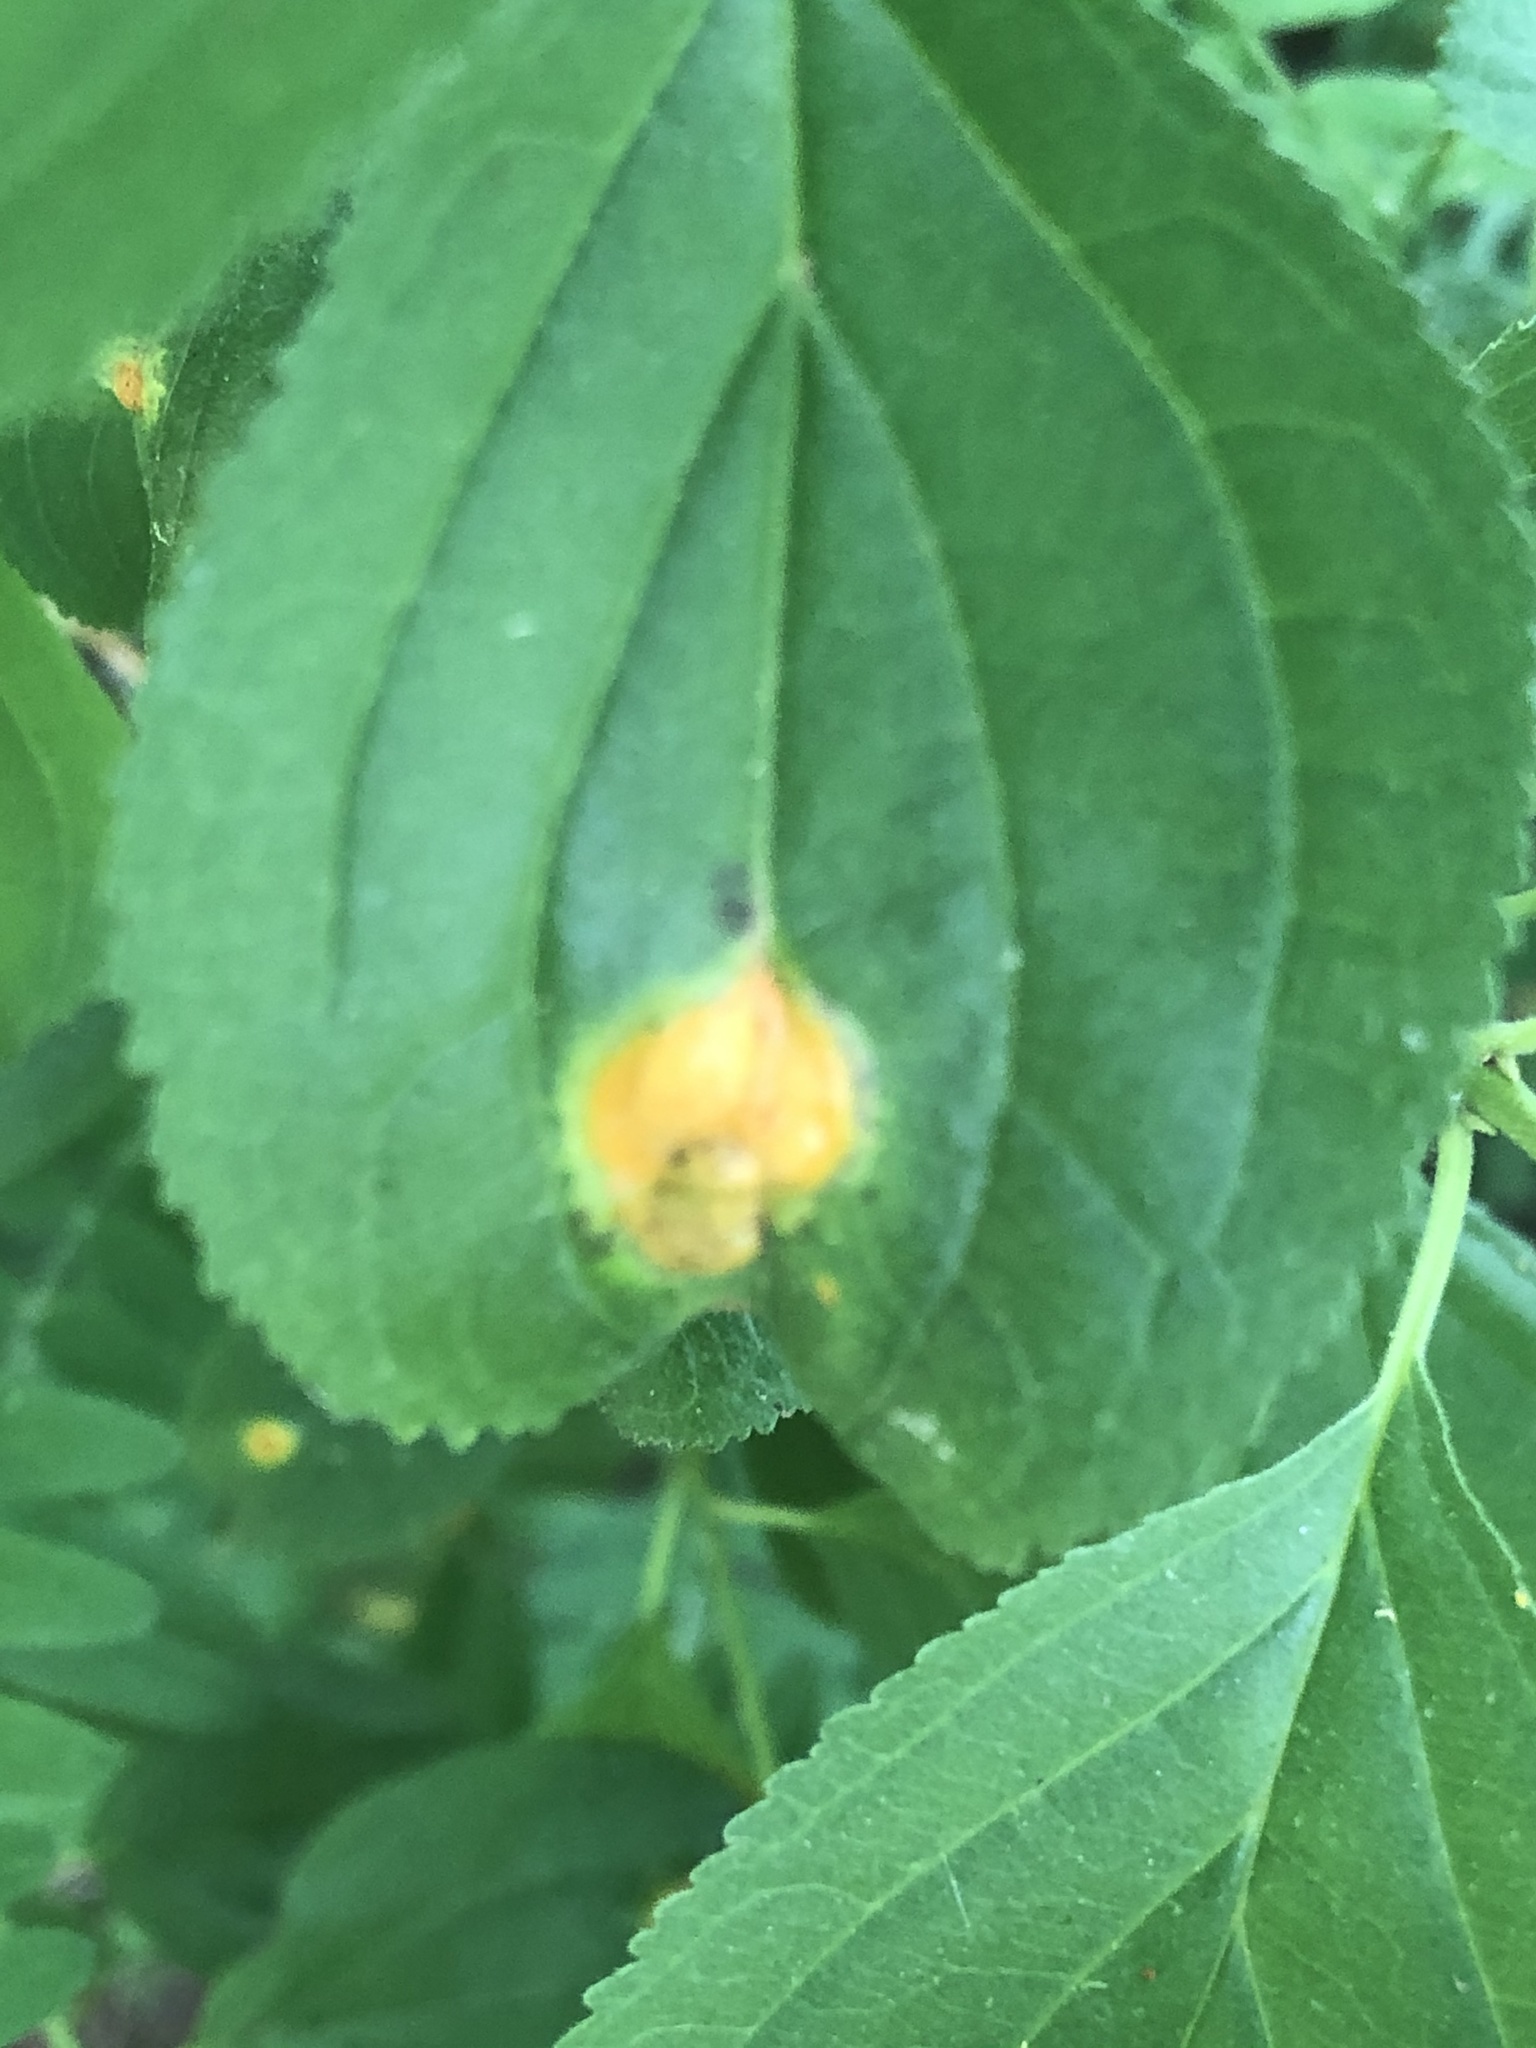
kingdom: Fungi
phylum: Basidiomycota
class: Pucciniomycetes
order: Pucciniales
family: Pucciniaceae
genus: Puccinia
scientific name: Puccinia coronata
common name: Crown rust
